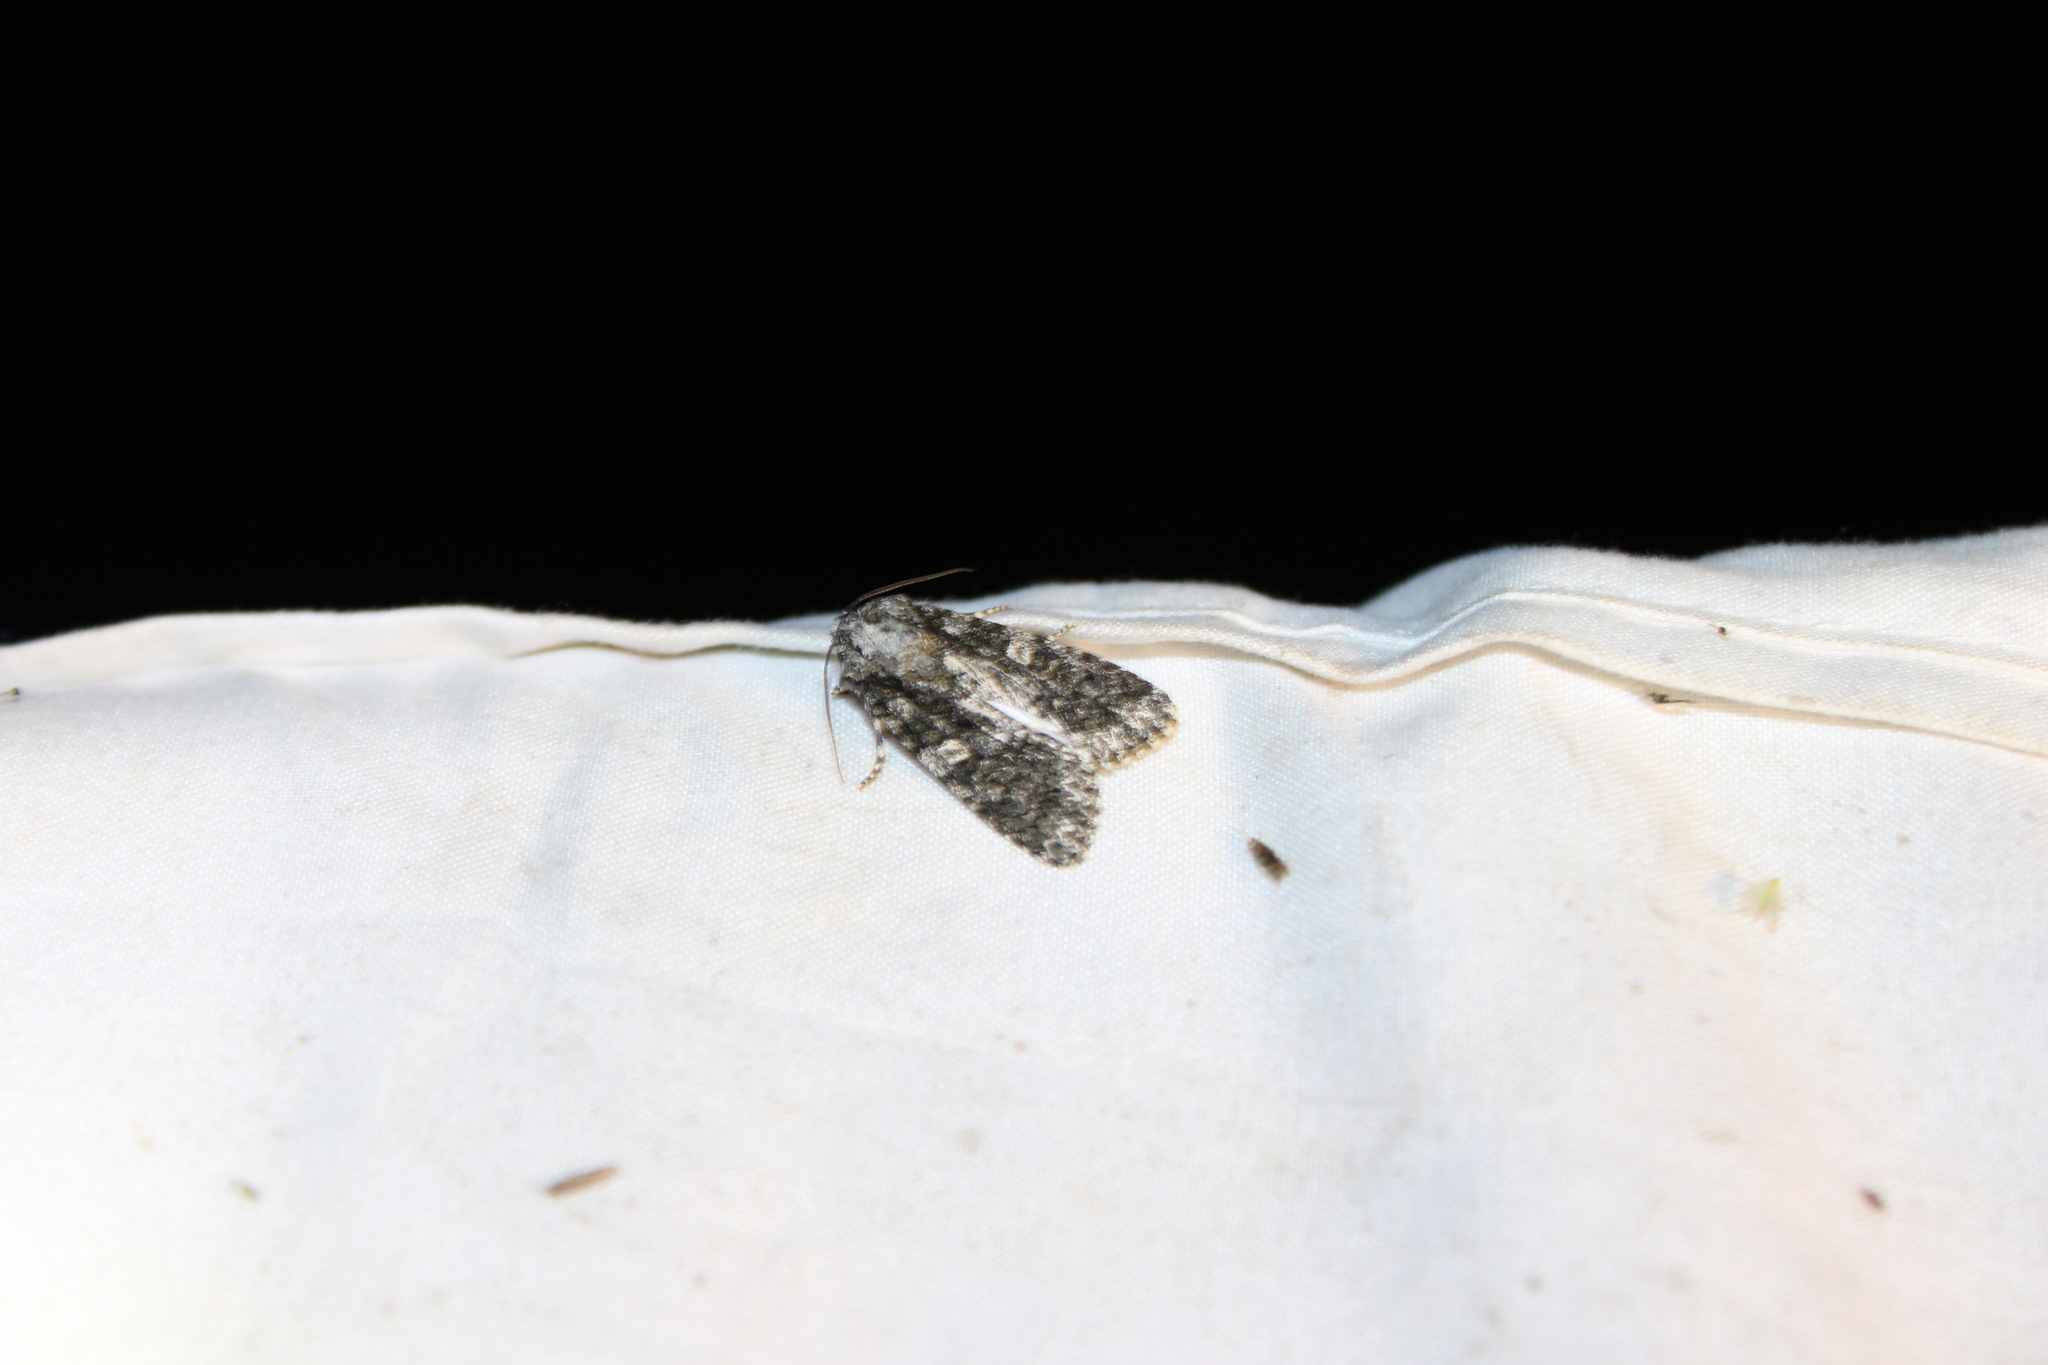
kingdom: Animalia
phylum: Arthropoda
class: Insecta
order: Lepidoptera
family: Noctuidae
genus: Acronicta
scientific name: Acronicta afflicta
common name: Afflicted dagger moth
